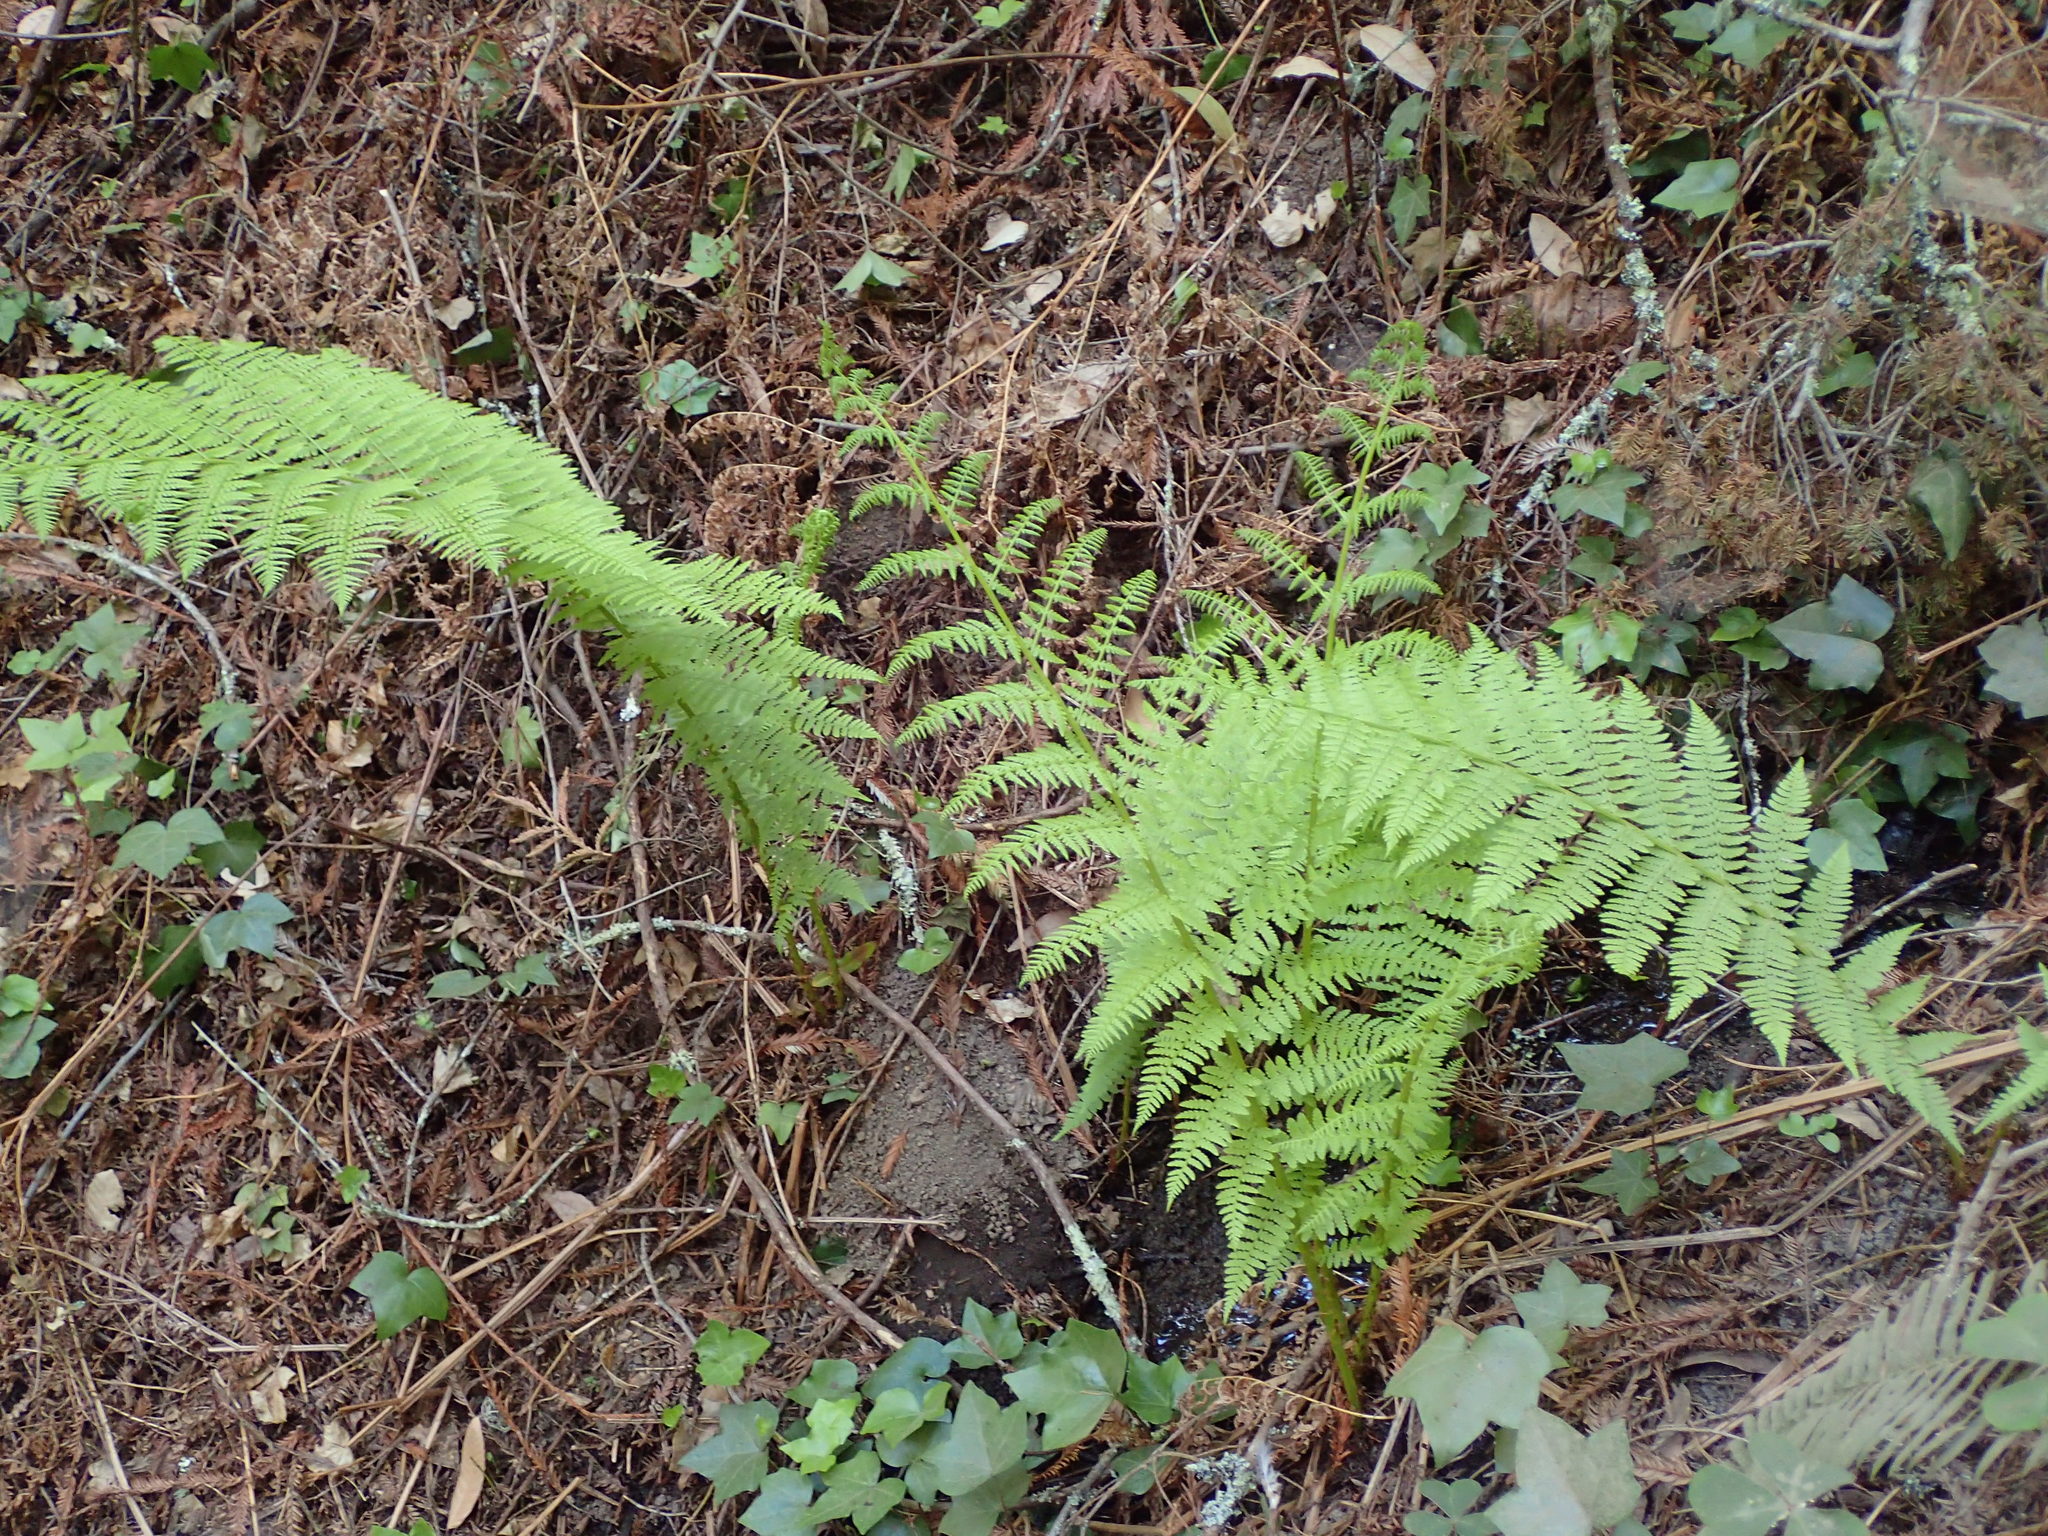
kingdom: Plantae
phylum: Tracheophyta
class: Polypodiopsida
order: Polypodiales
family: Athyriaceae
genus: Athyrium
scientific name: Athyrium filix-femina
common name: Lady fern
